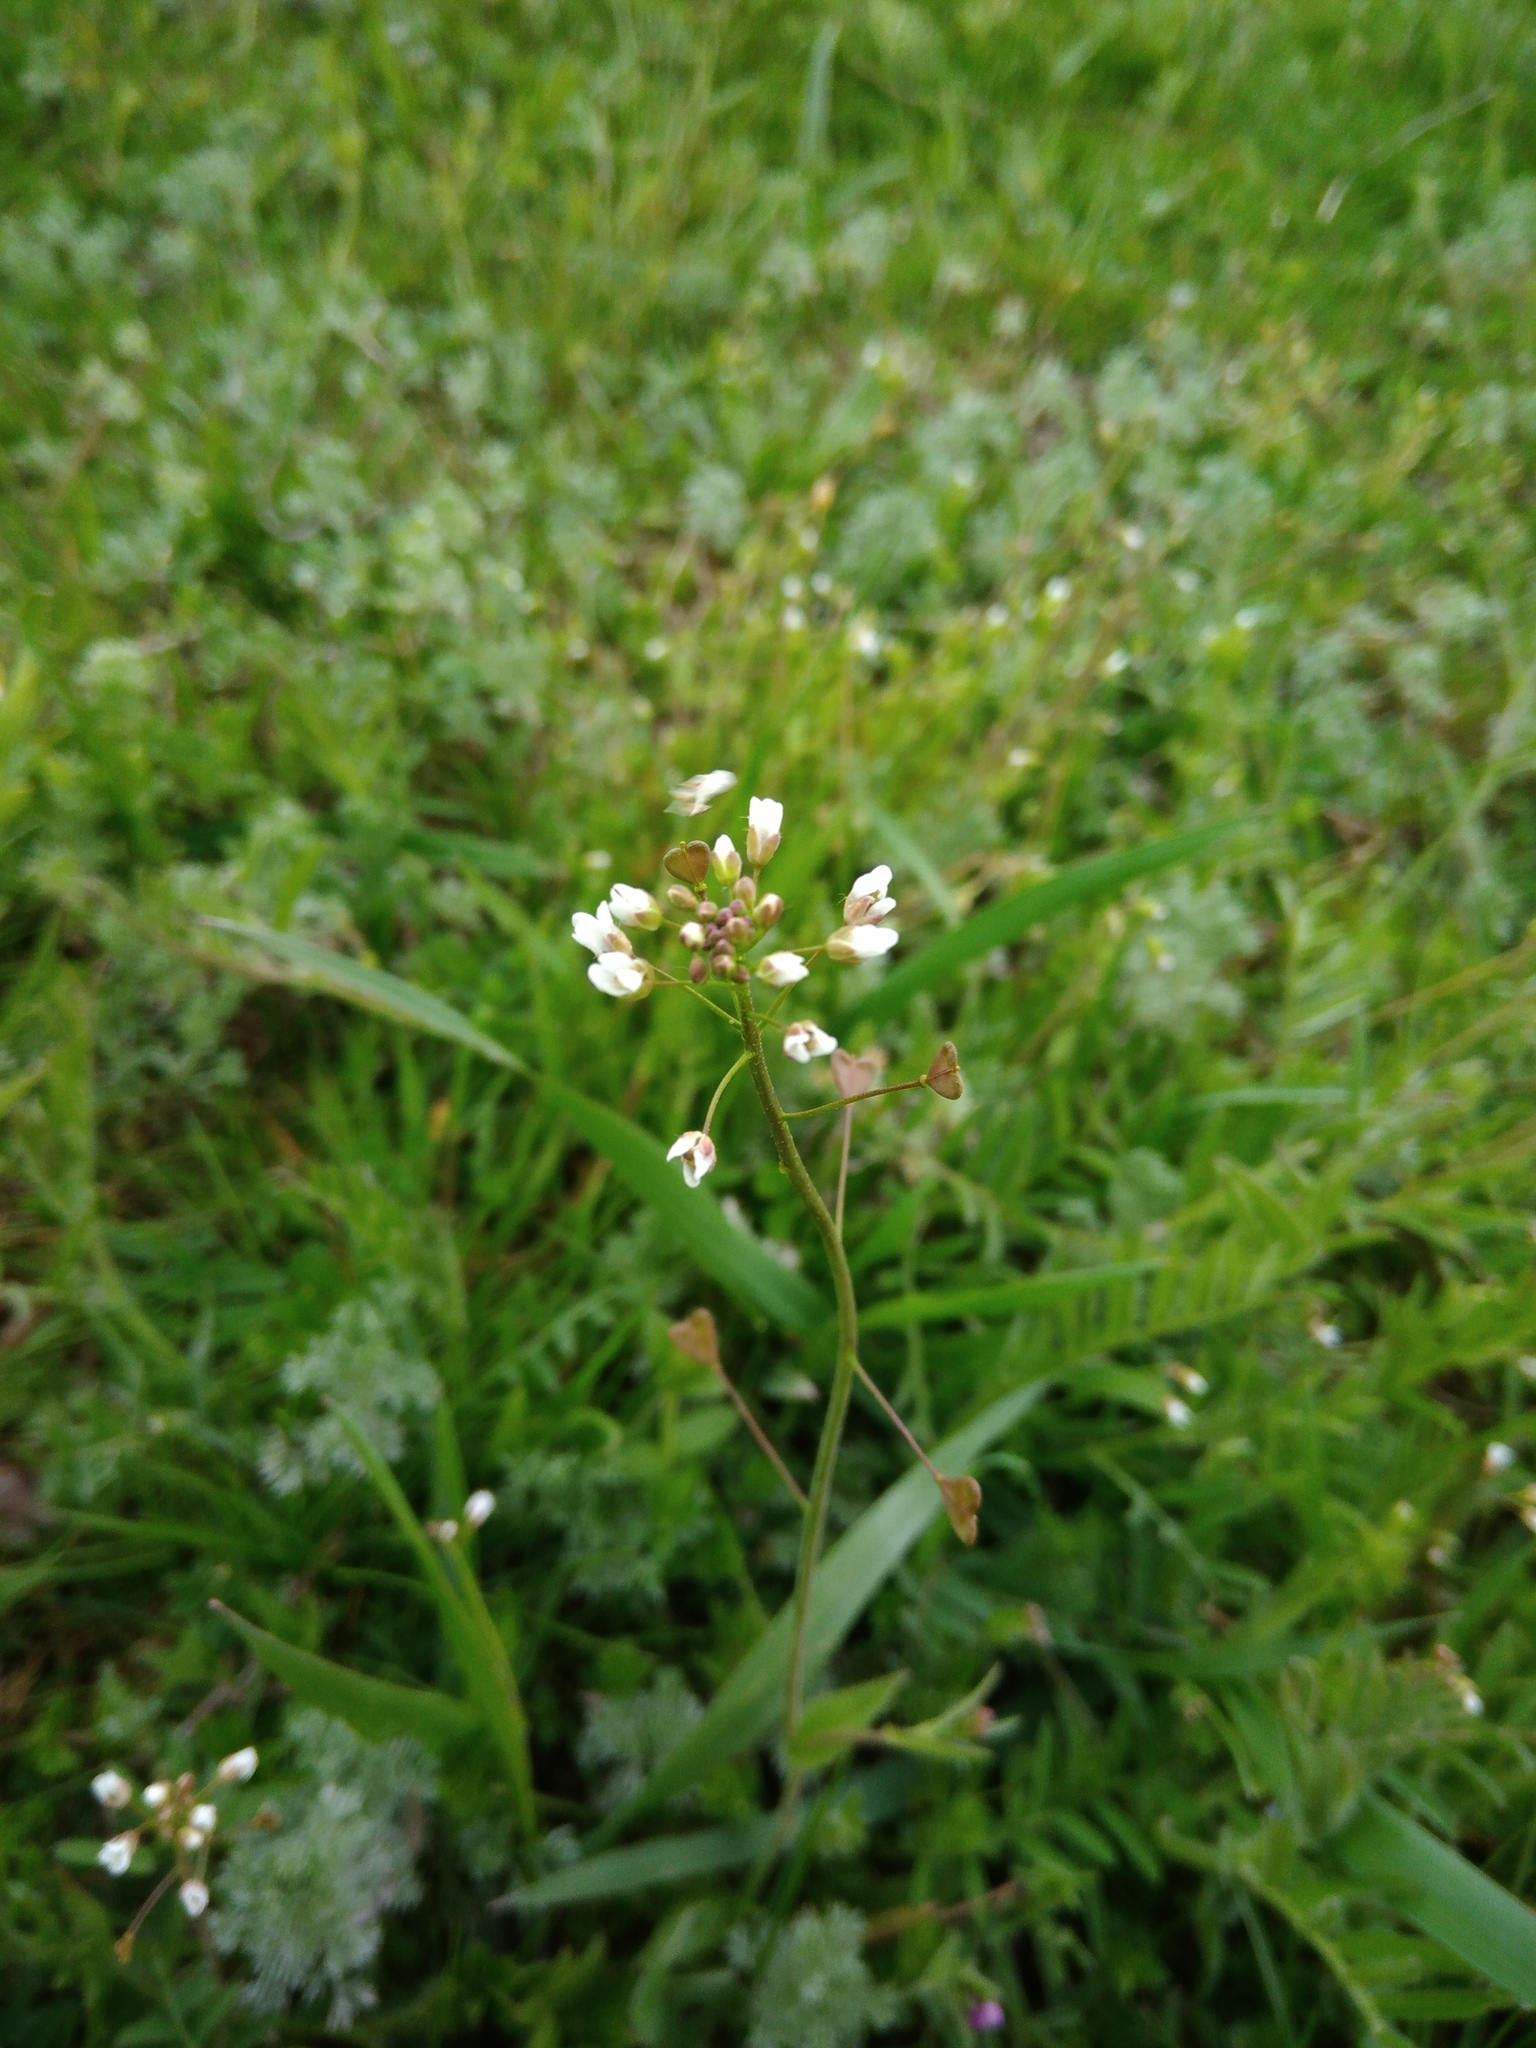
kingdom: Plantae
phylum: Tracheophyta
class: Magnoliopsida
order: Brassicales
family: Brassicaceae
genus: Capsella
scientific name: Capsella bursa-pastoris
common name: Shepherd's purse
